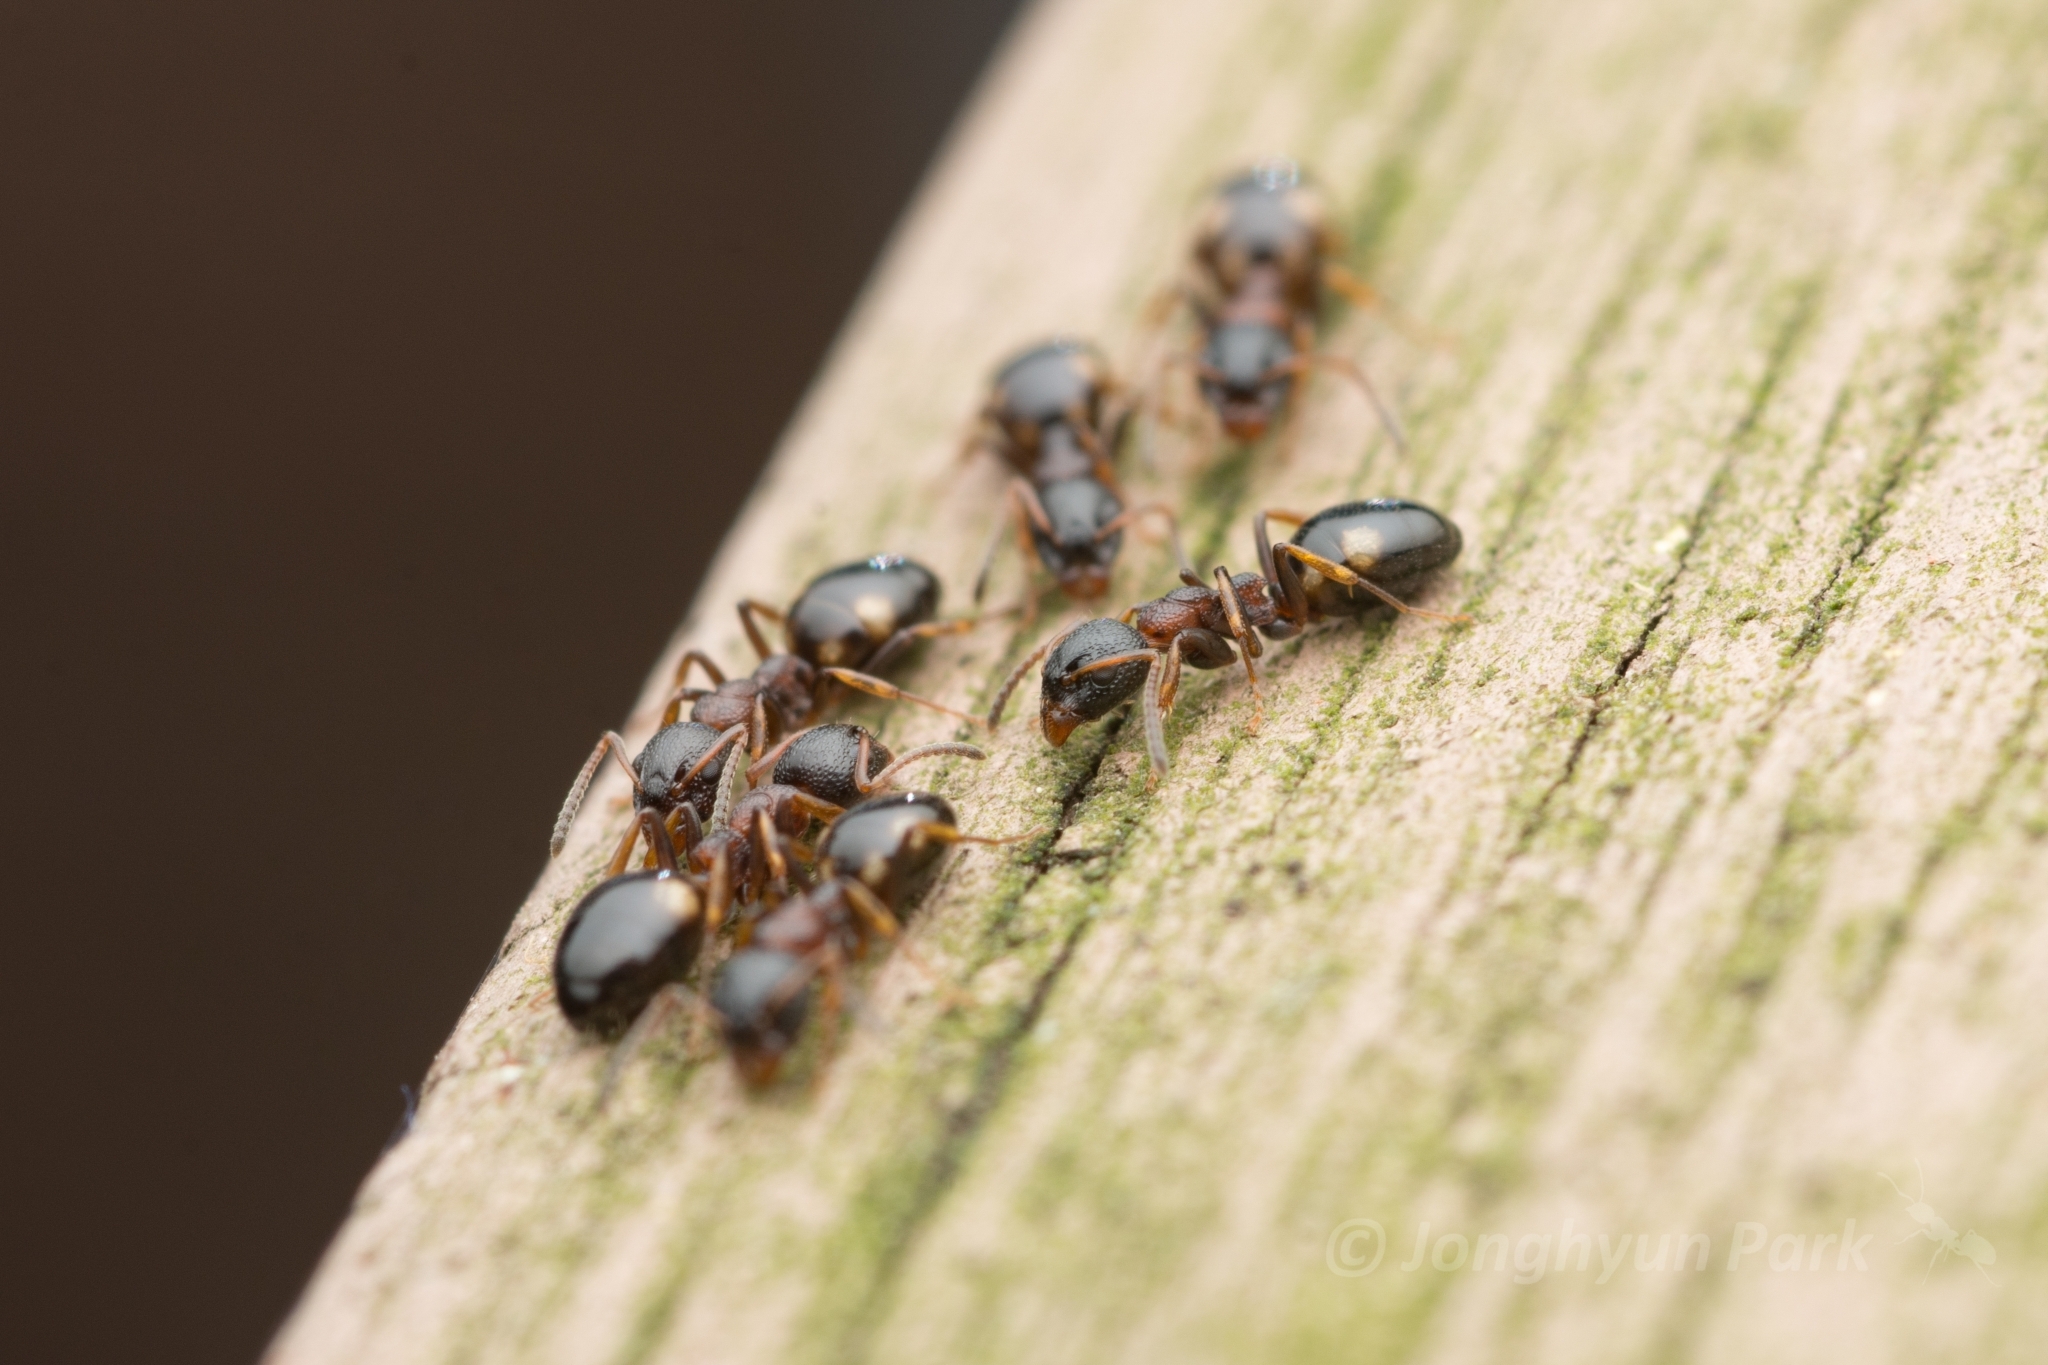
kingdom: Animalia
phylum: Arthropoda
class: Insecta
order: Hymenoptera
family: Formicidae
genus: Dolichoderus
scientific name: Dolichoderus sibiricus
